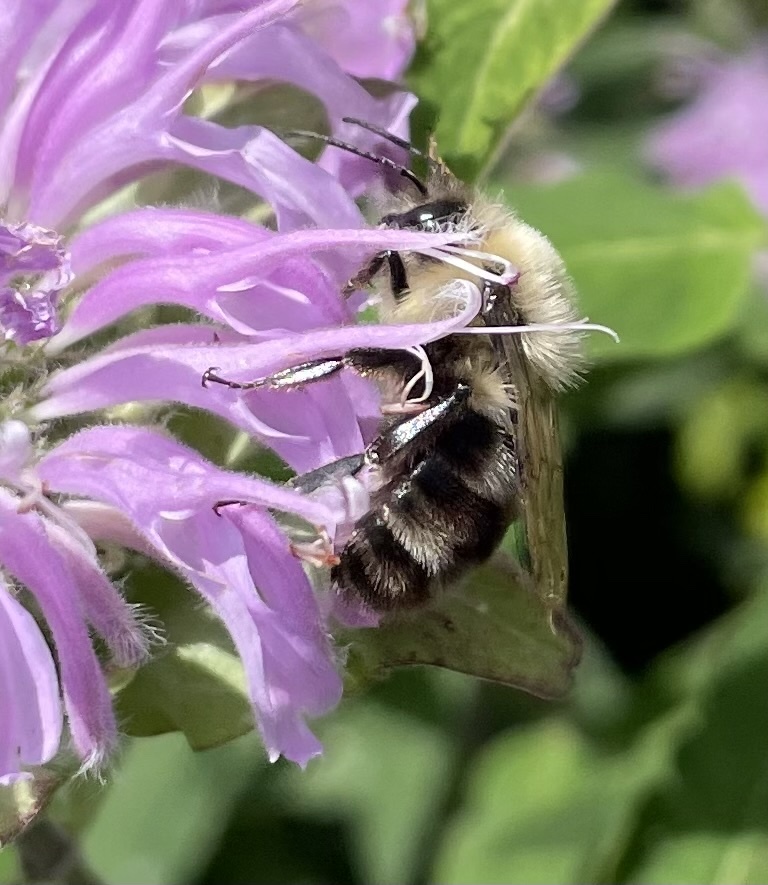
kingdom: Animalia
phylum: Arthropoda
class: Insecta
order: Hymenoptera
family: Apidae
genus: Bombus
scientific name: Bombus bimaculatus
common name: Two-spotted bumble bee
